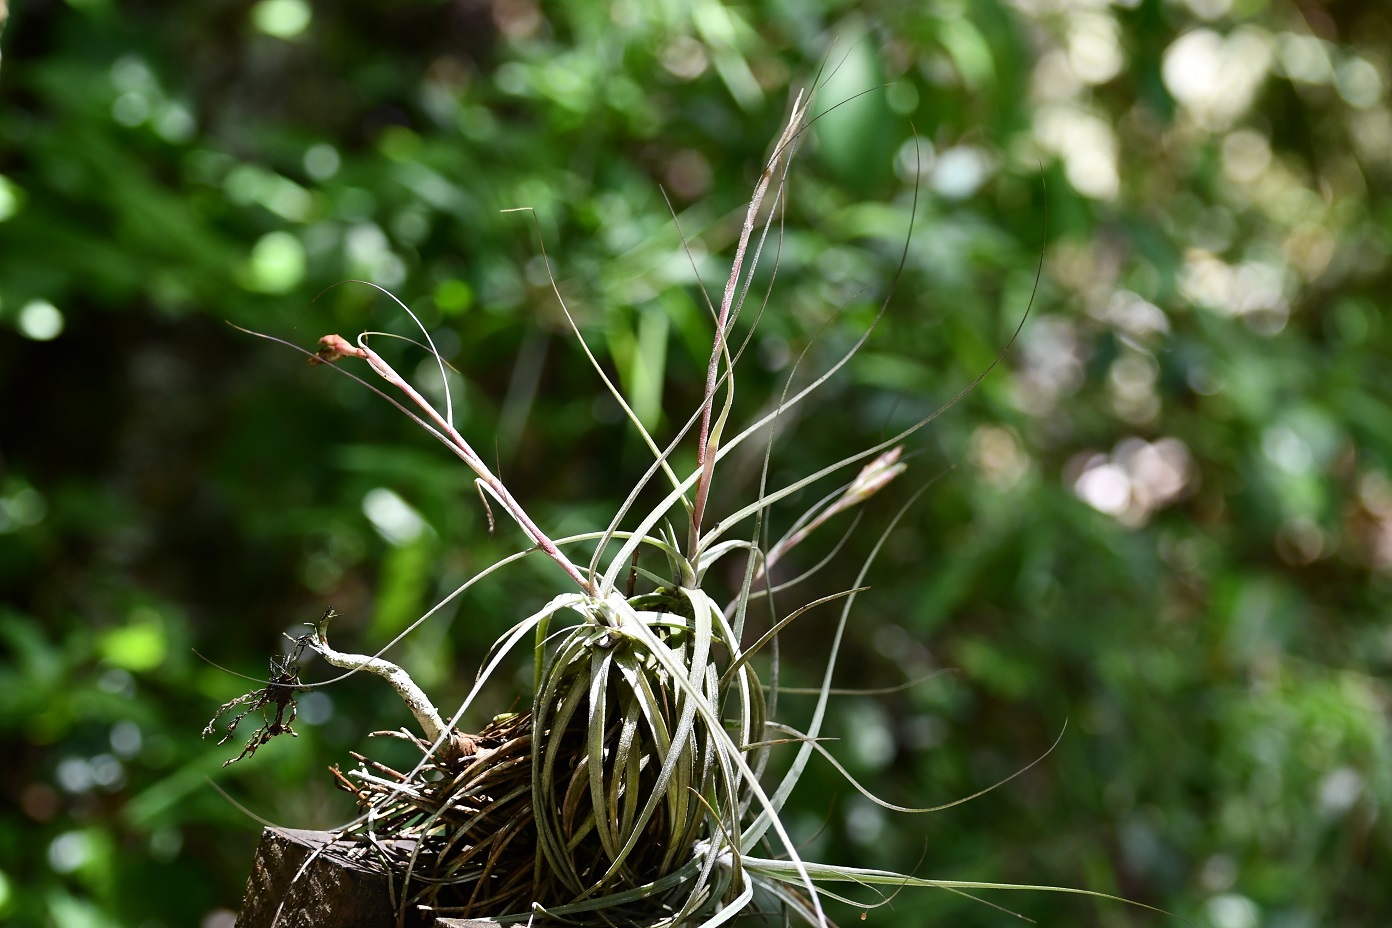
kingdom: Plantae
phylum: Tracheophyta
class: Liliopsida
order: Poales
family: Bromeliaceae
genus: Tillandsia
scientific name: Tillandsia schiedeana
